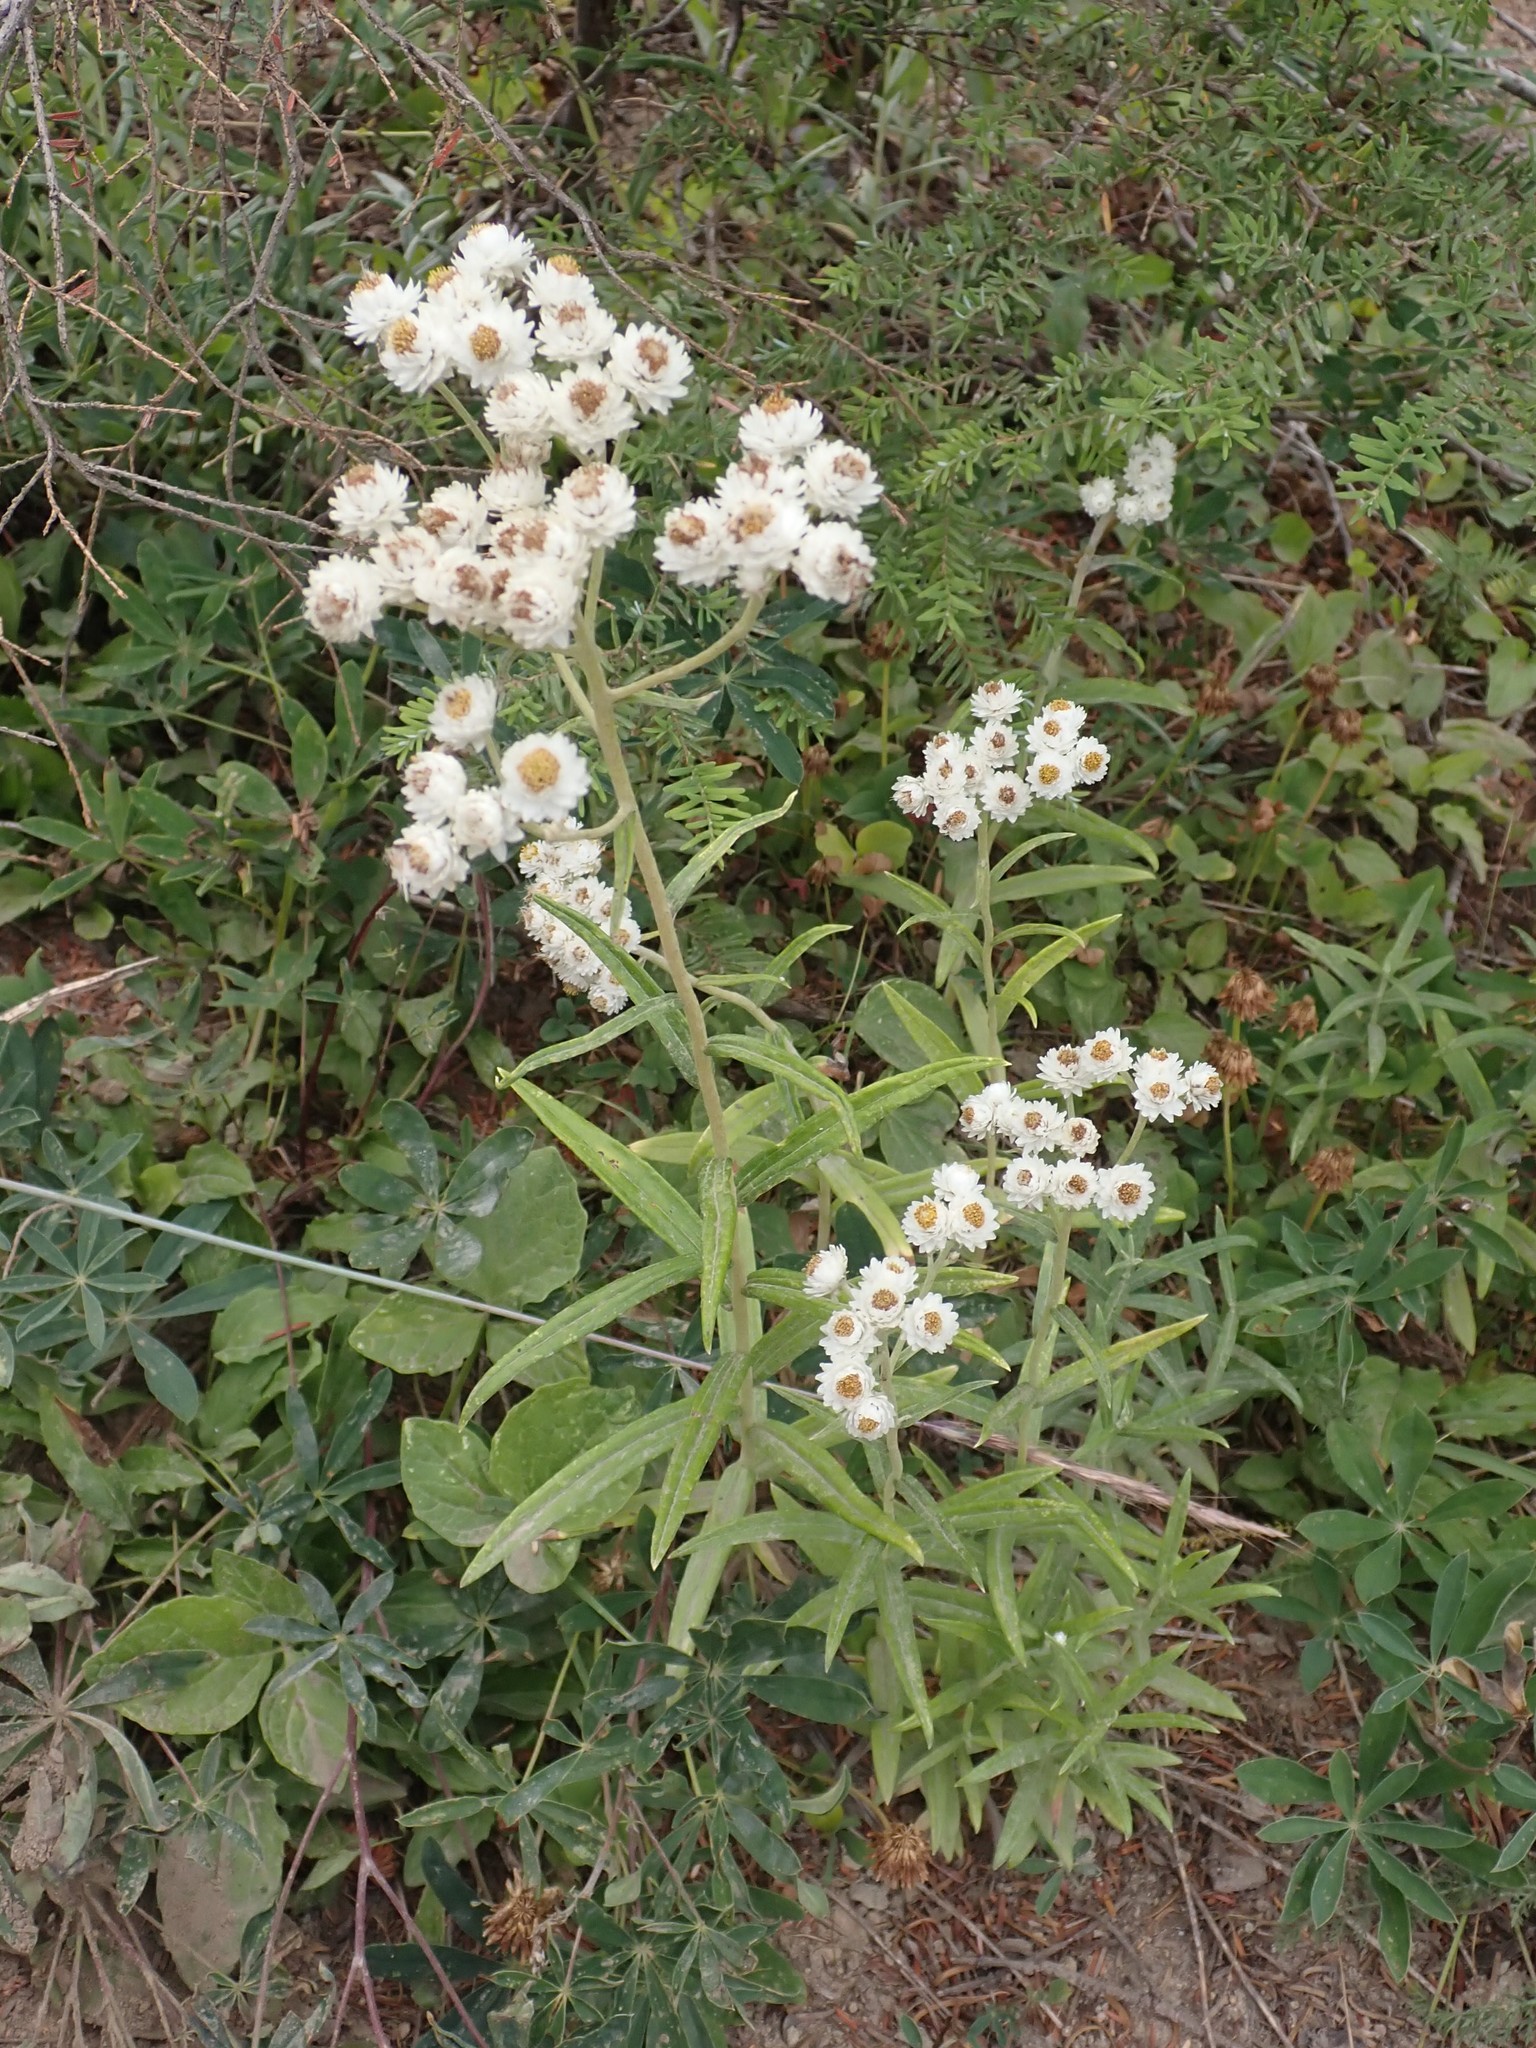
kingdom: Plantae
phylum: Tracheophyta
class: Magnoliopsida
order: Asterales
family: Asteraceae
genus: Anaphalis
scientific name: Anaphalis margaritacea
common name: Pearly everlasting
